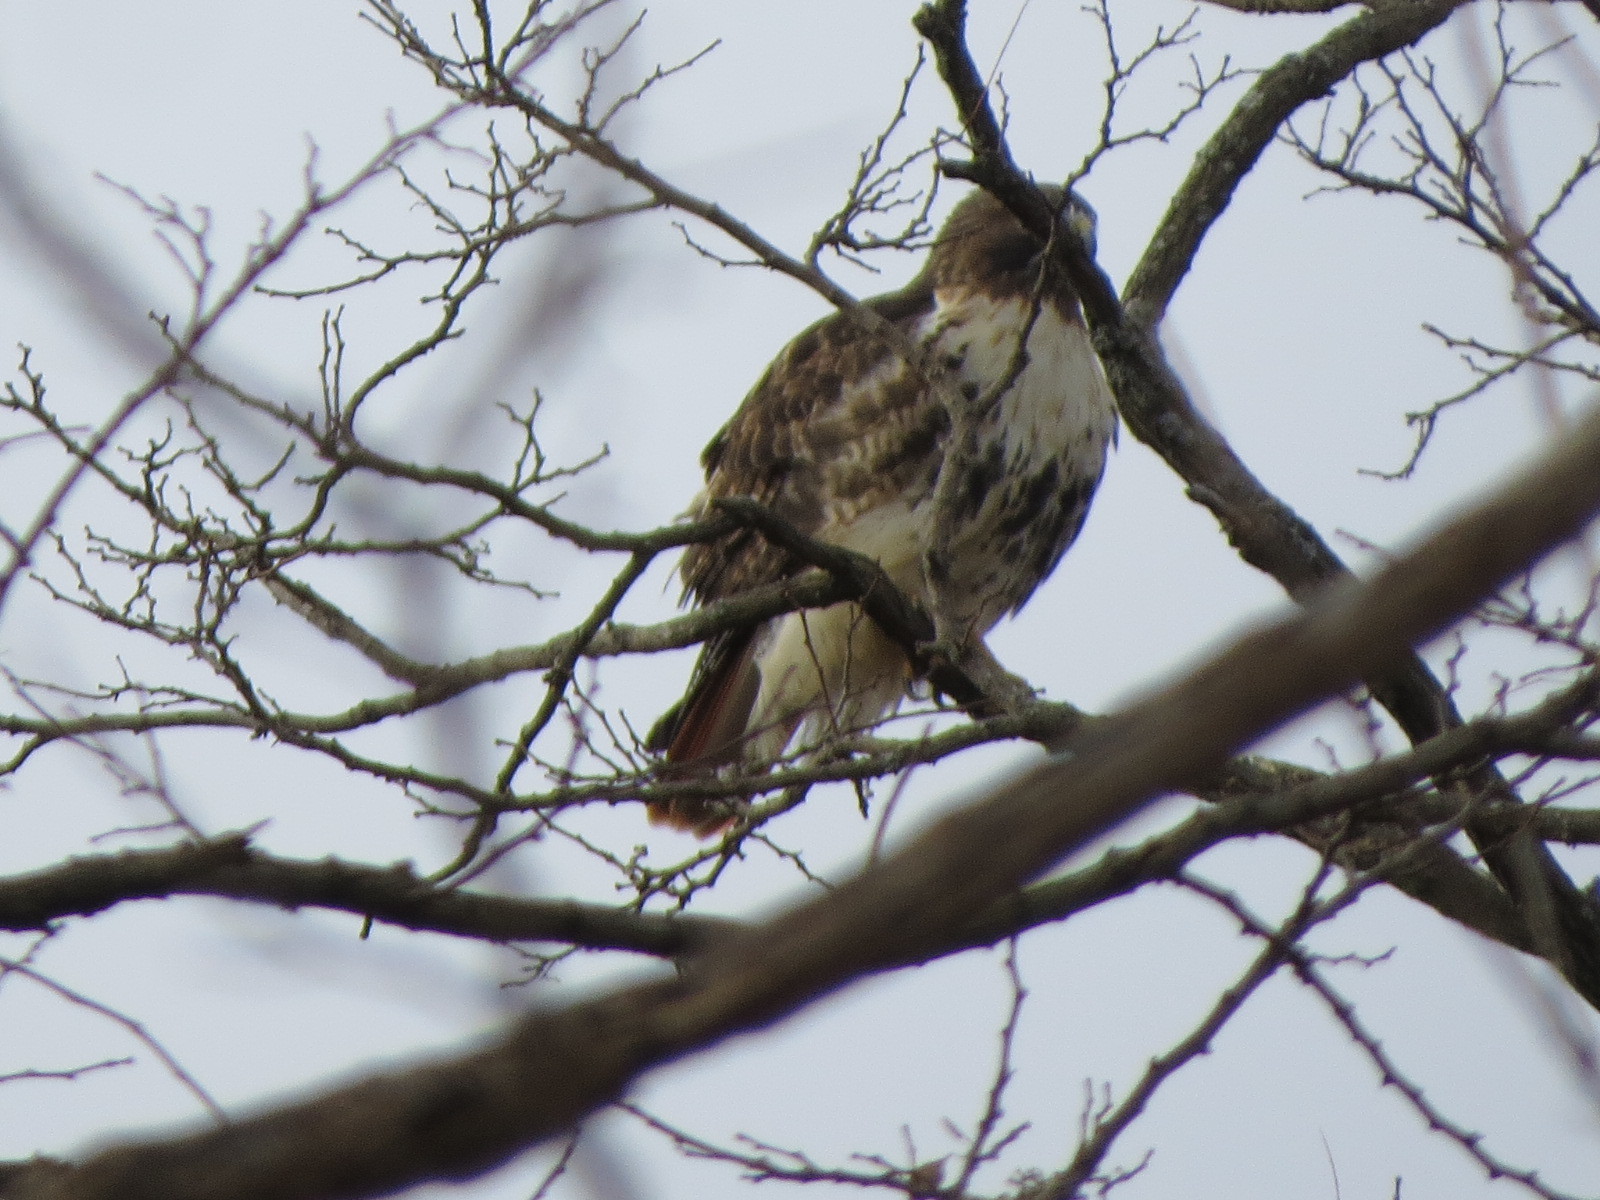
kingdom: Animalia
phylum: Chordata
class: Aves
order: Accipitriformes
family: Accipitridae
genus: Buteo
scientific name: Buteo jamaicensis
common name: Red-tailed hawk
